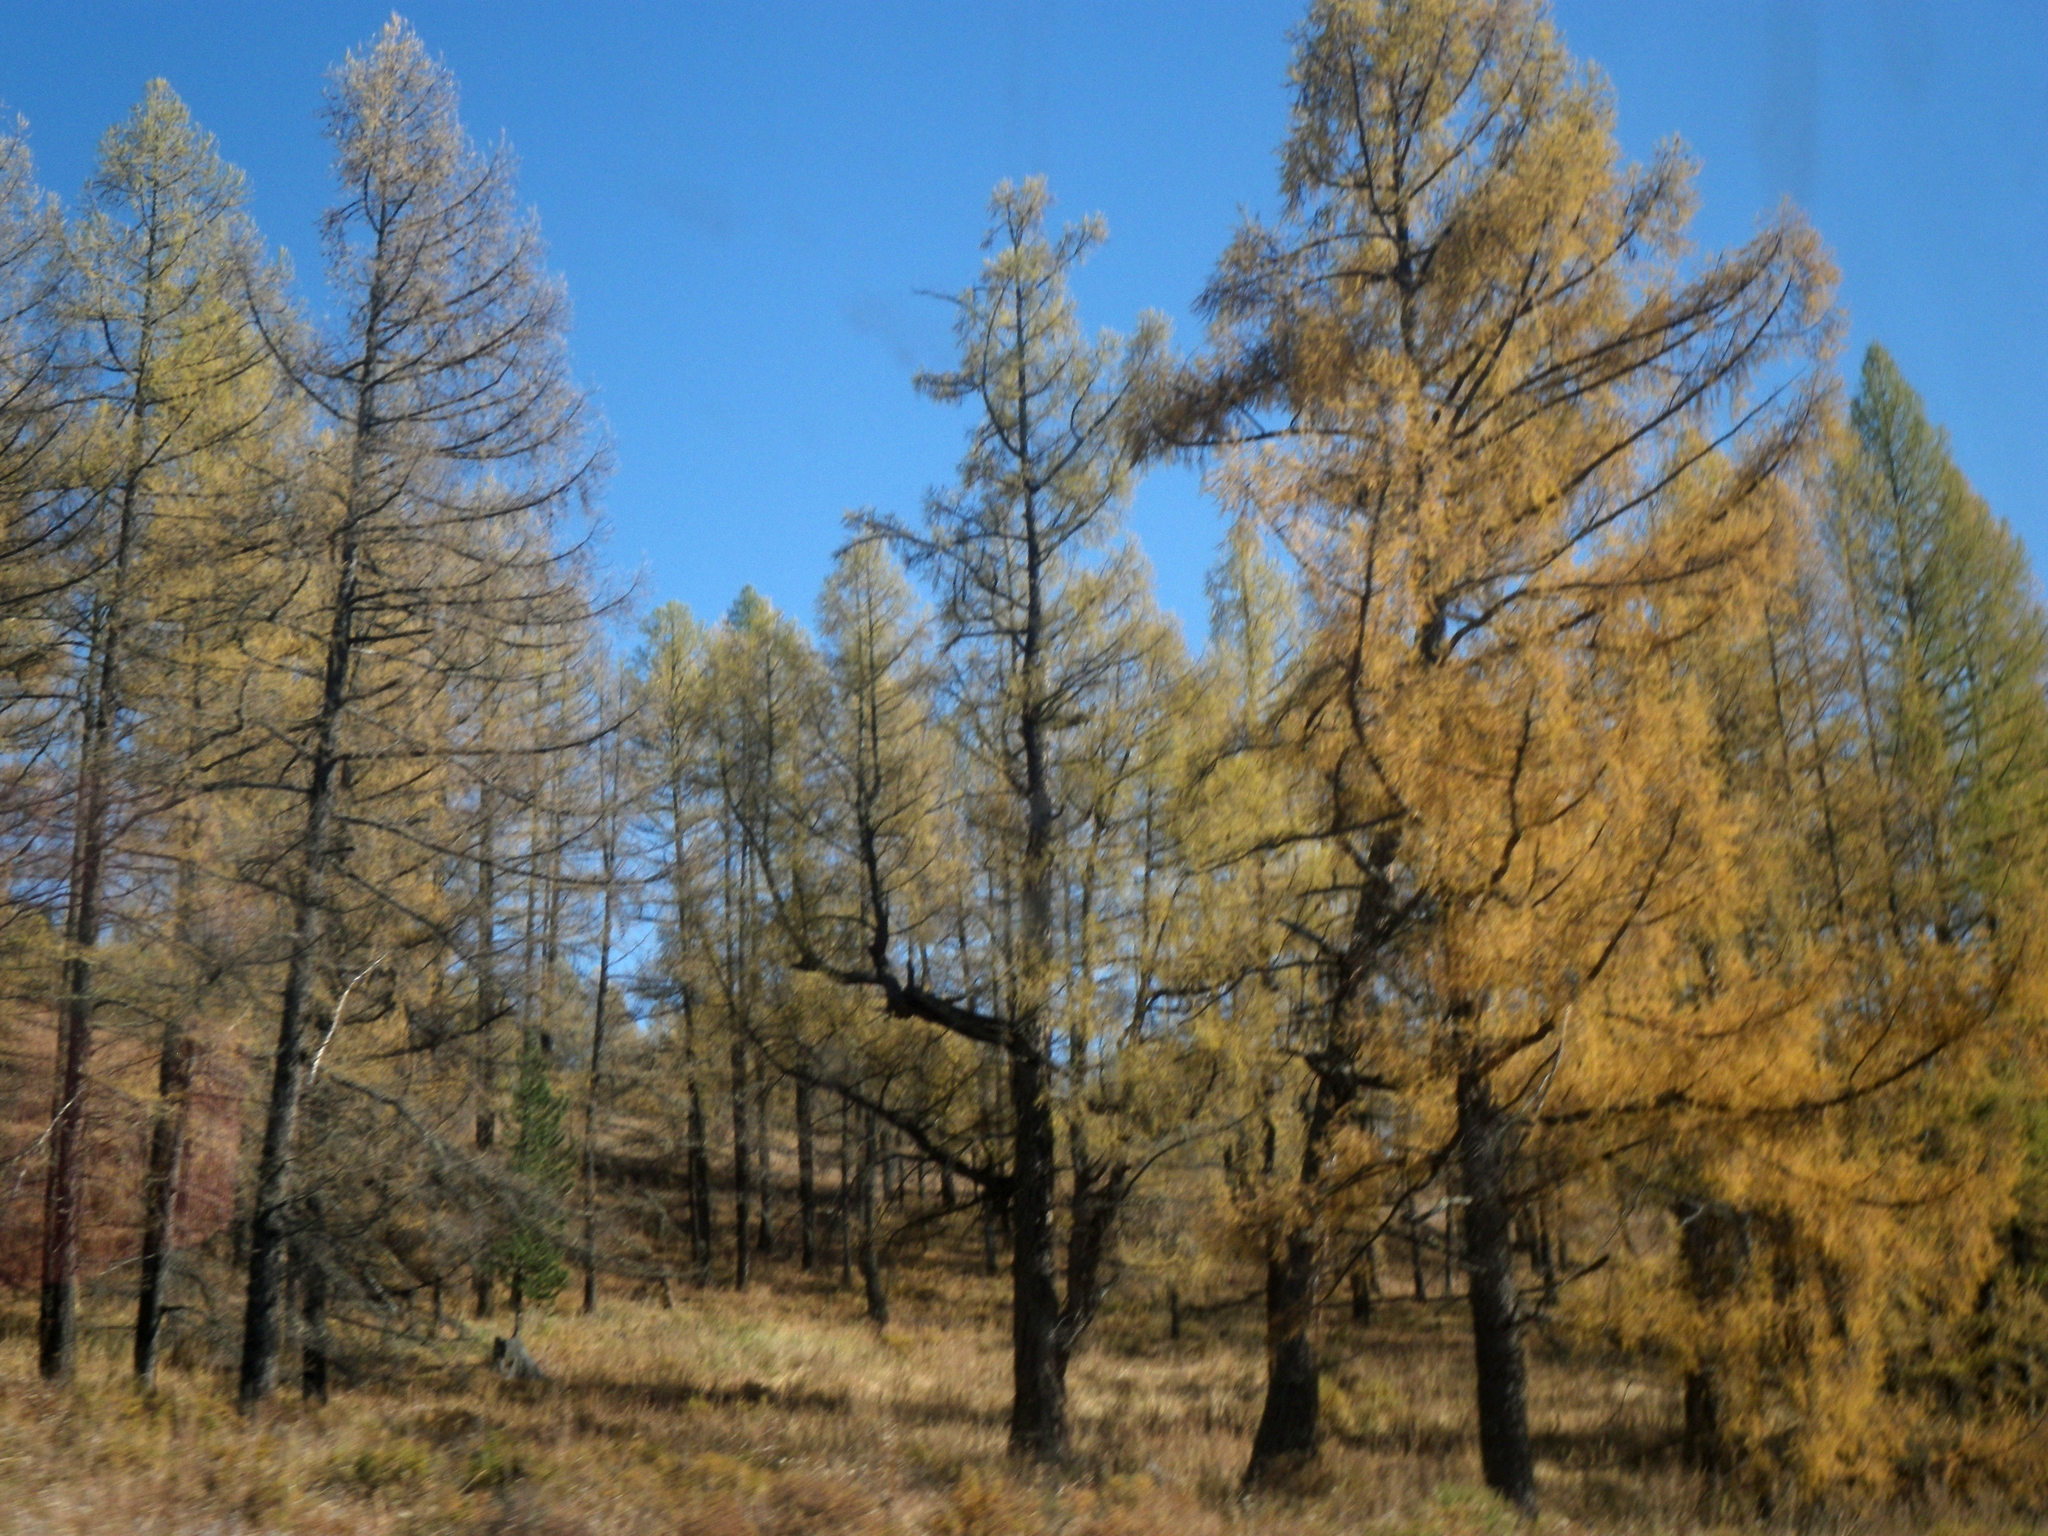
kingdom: Plantae
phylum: Tracheophyta
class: Pinopsida
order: Pinales
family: Pinaceae
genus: Larix
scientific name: Larix sibirica
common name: Siberian larch
